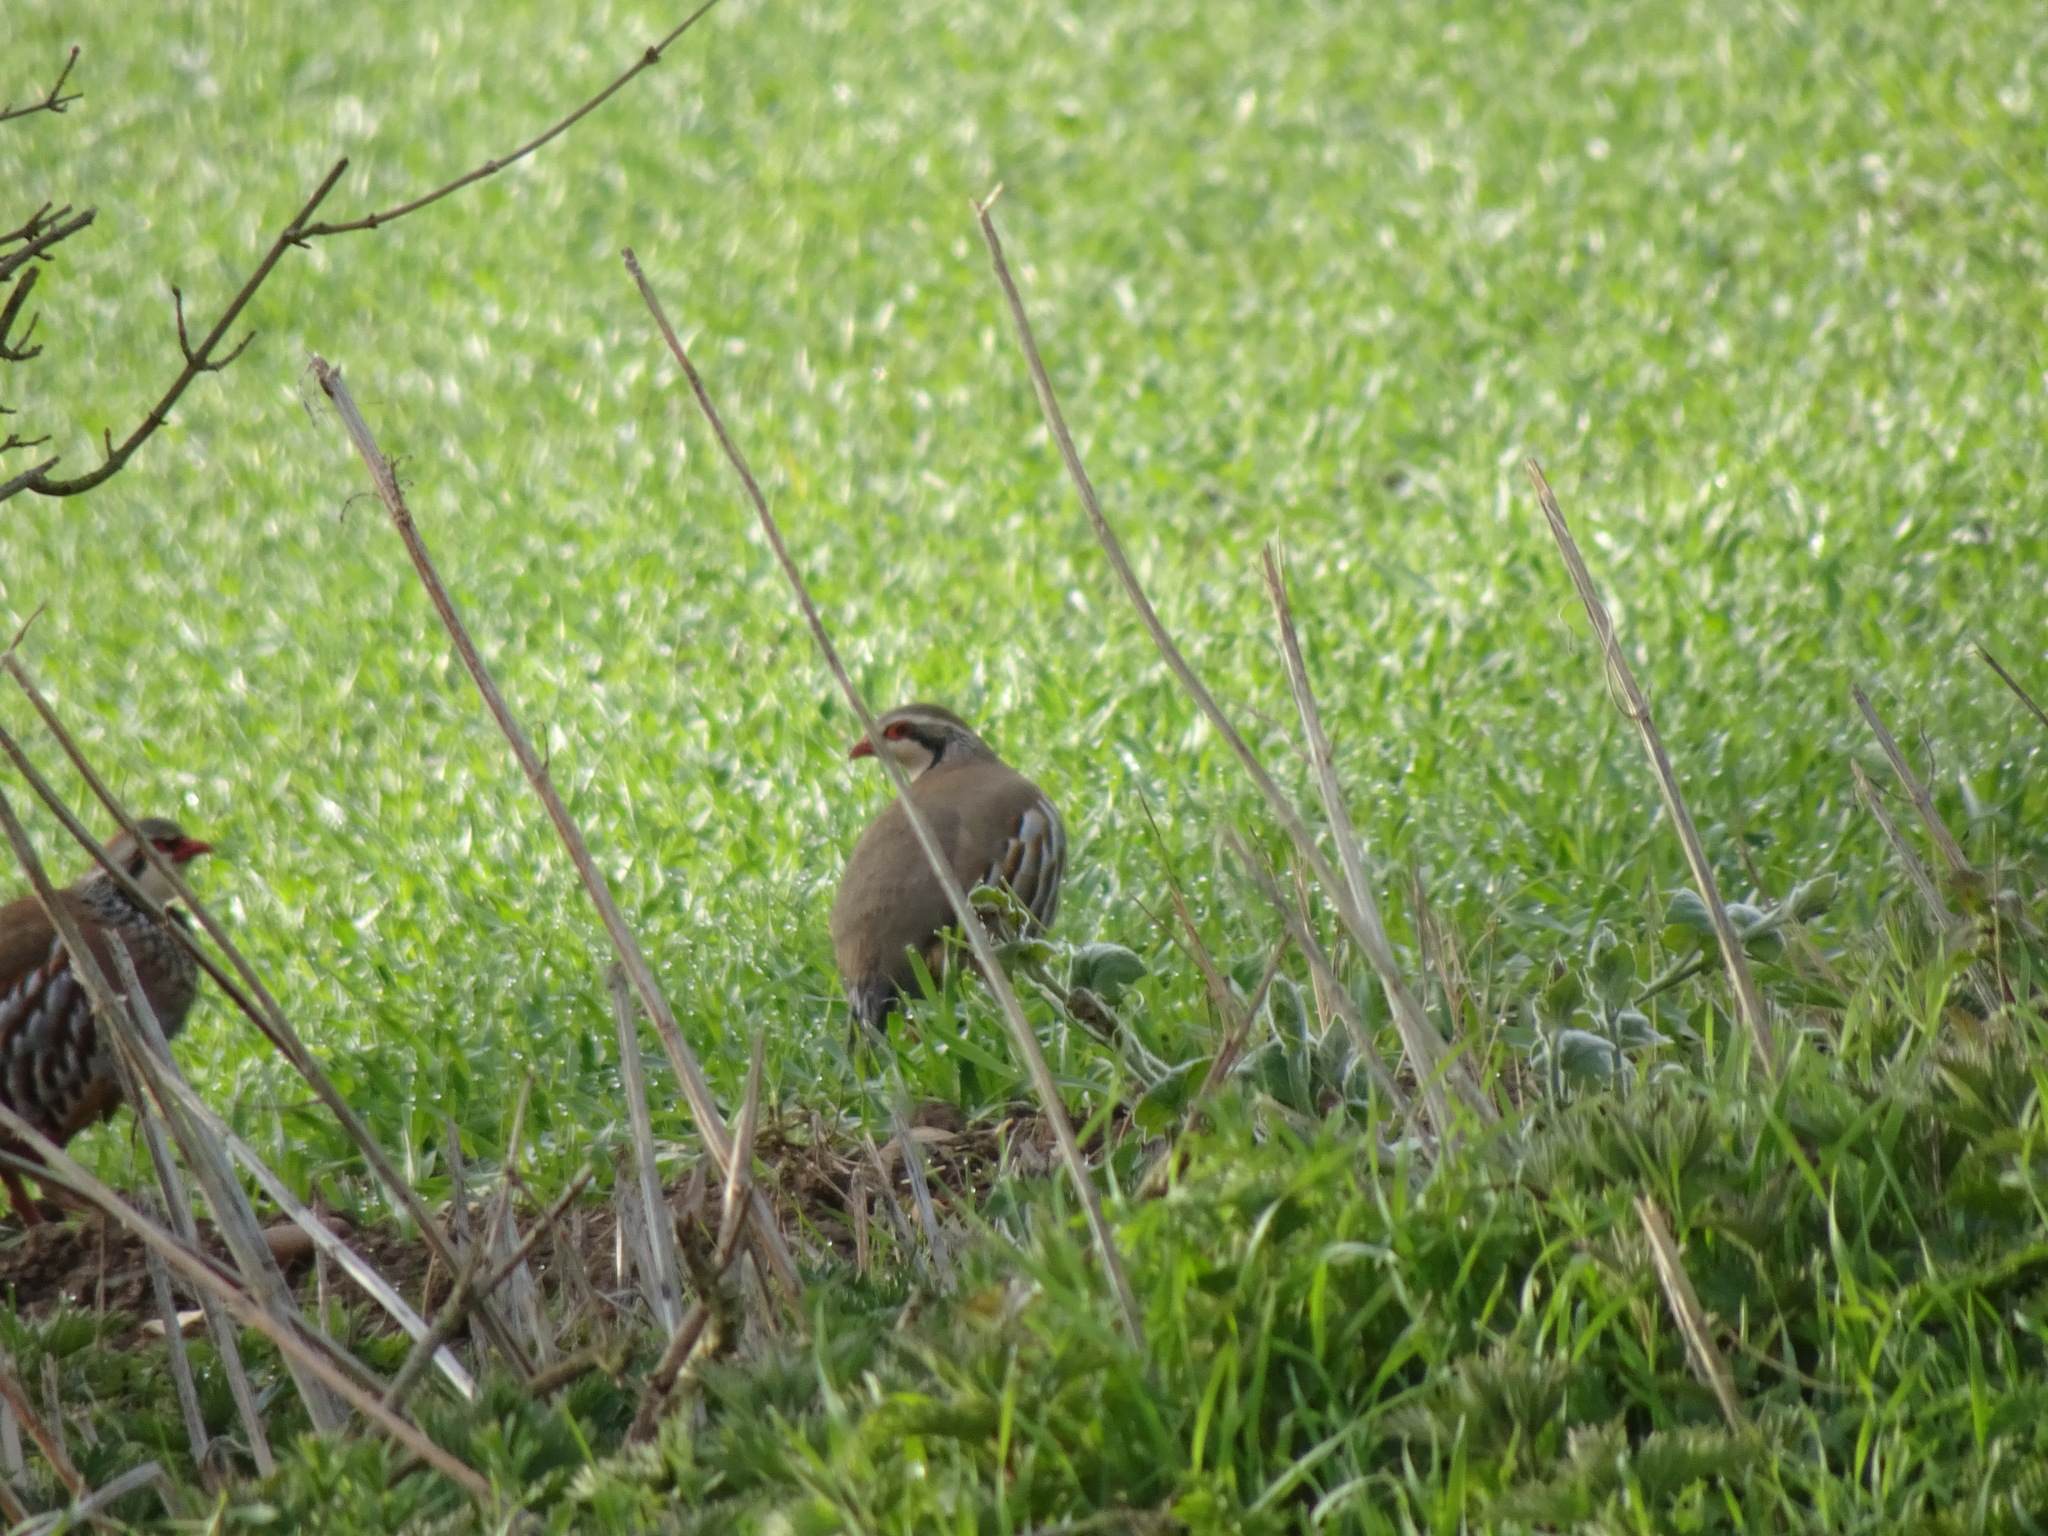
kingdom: Animalia
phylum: Chordata
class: Aves
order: Galliformes
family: Phasianidae
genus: Alectoris
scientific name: Alectoris rufa
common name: Red-legged partridge
